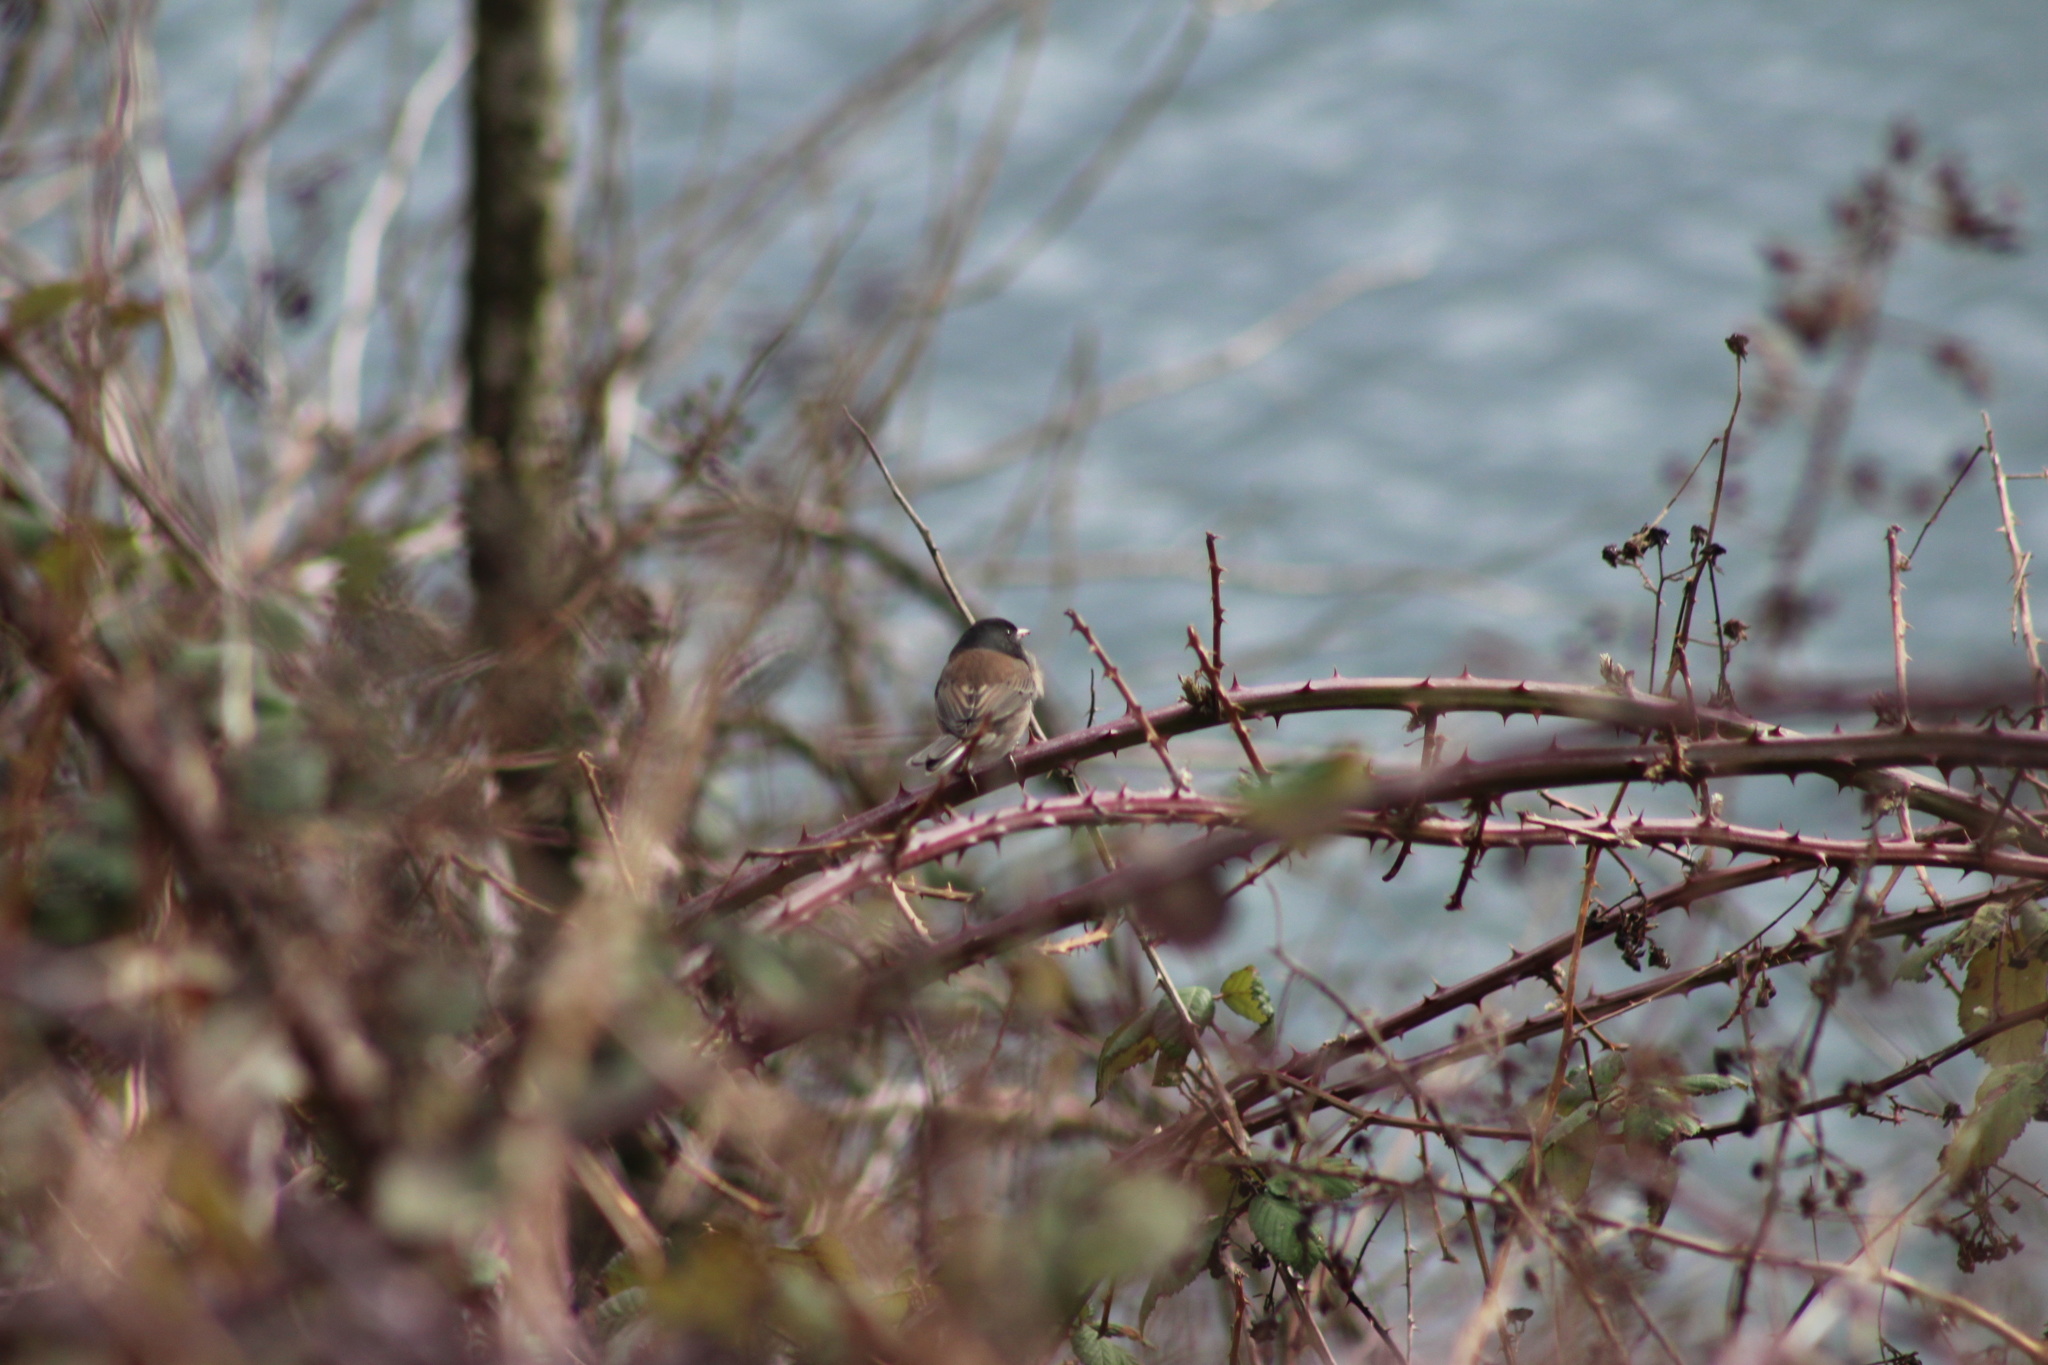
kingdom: Animalia
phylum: Chordata
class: Aves
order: Passeriformes
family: Passerellidae
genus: Junco
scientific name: Junco hyemalis
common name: Dark-eyed junco
